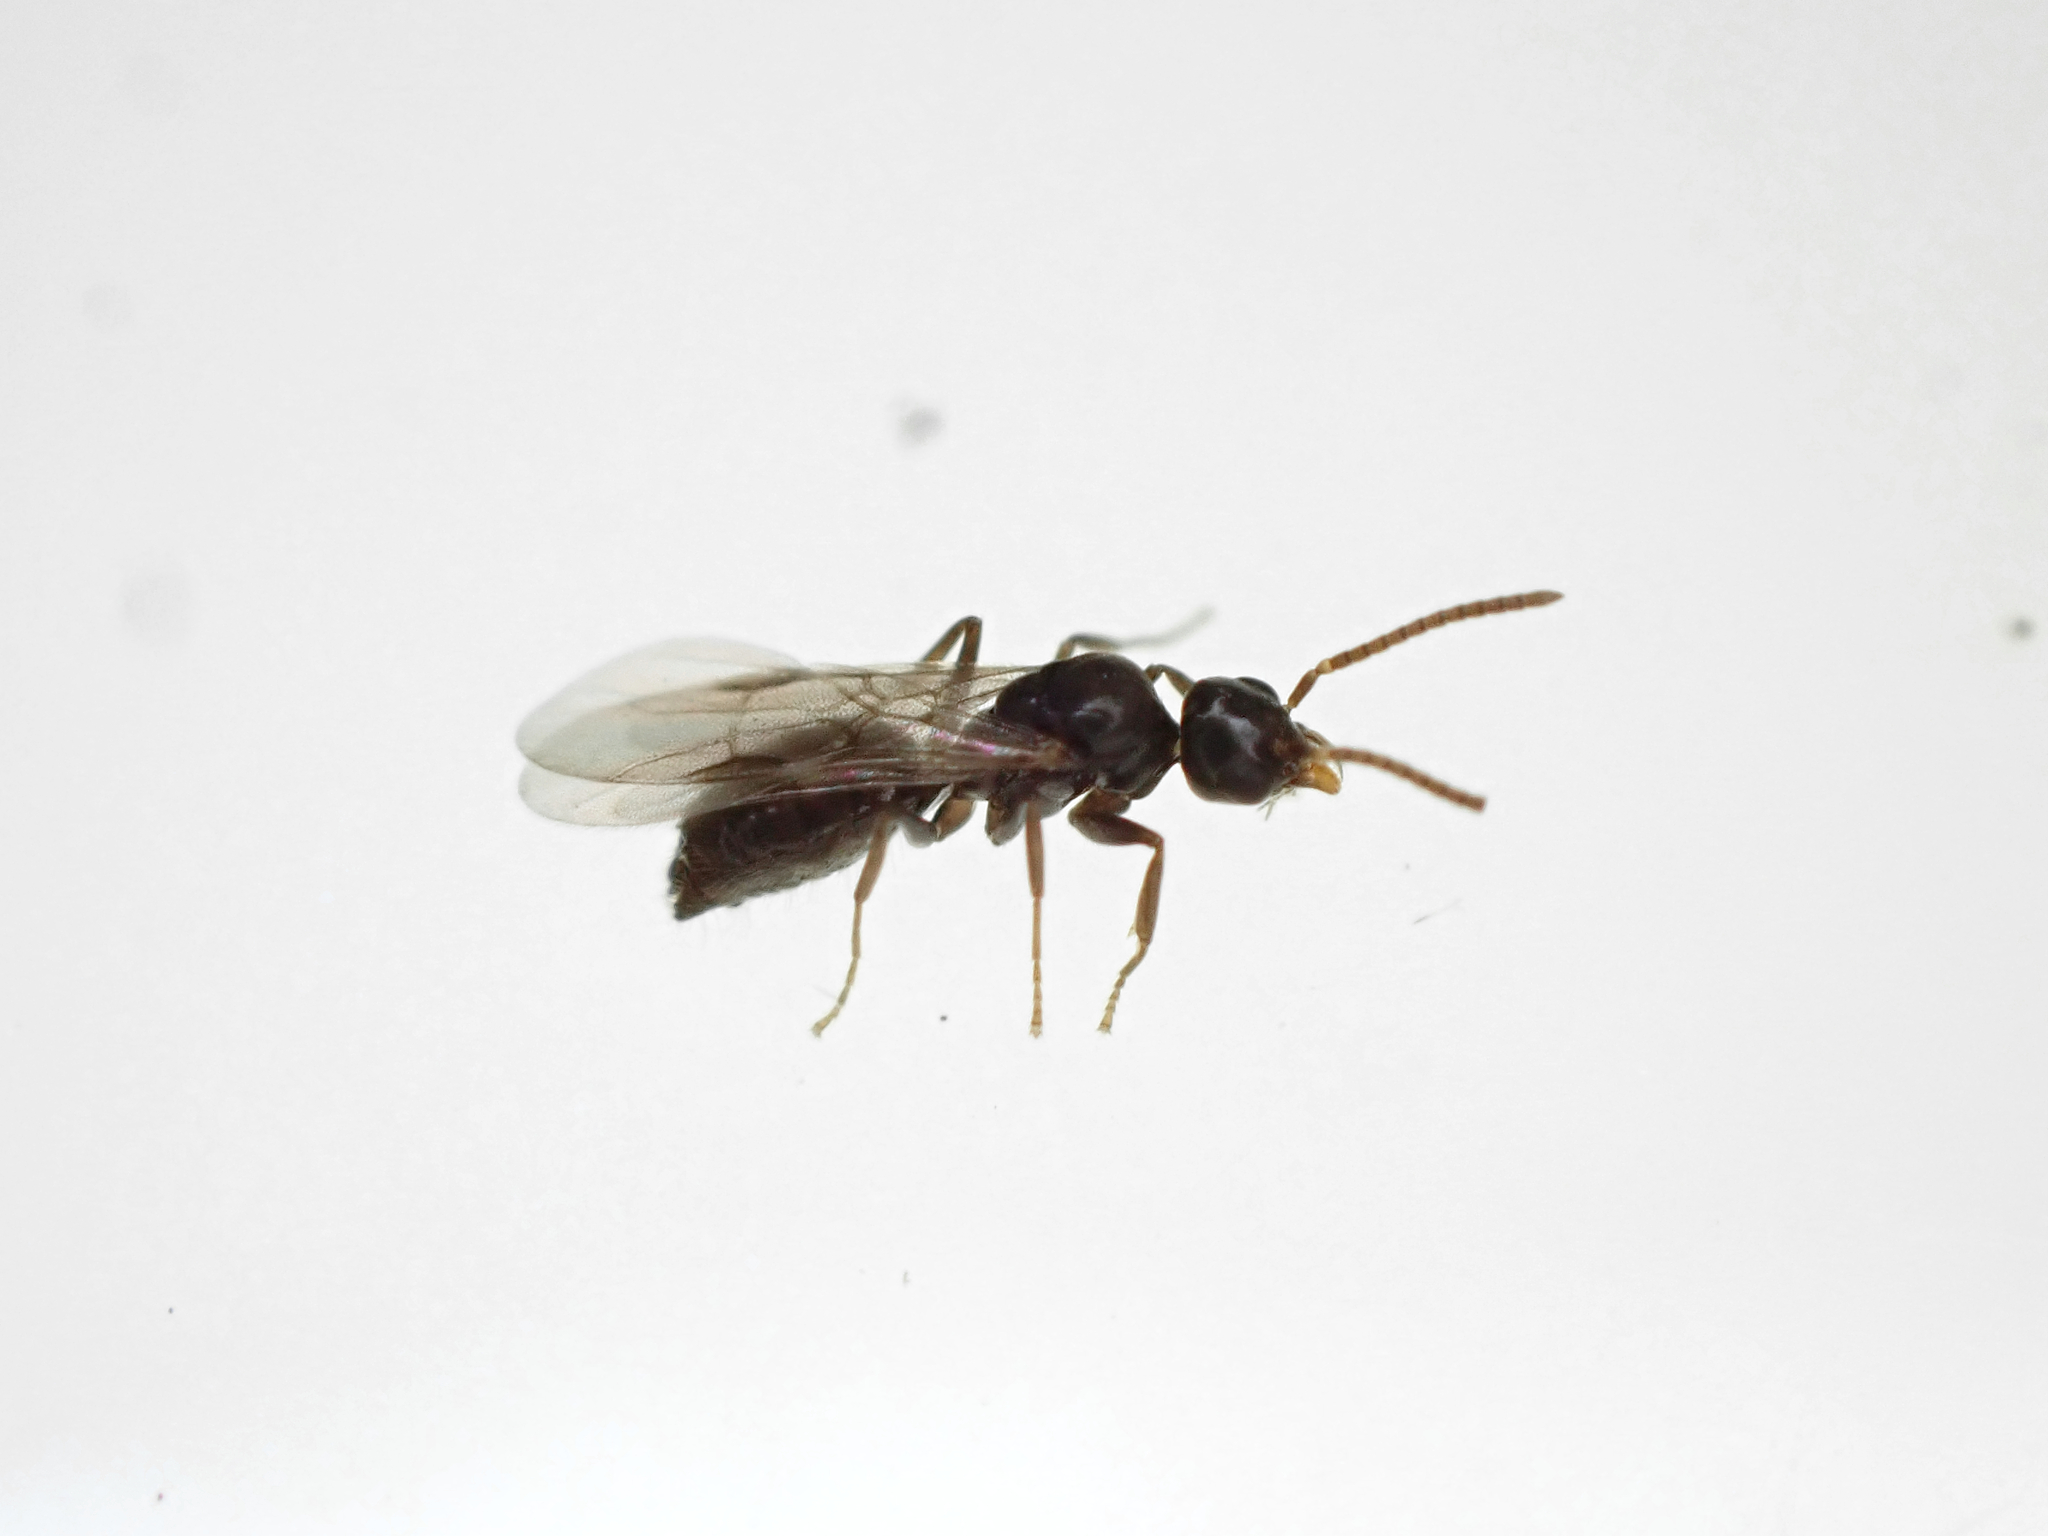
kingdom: Animalia
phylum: Arthropoda
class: Insecta
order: Hymenoptera
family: Formicidae
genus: Technomyrmex
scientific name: Technomyrmex jocosus
